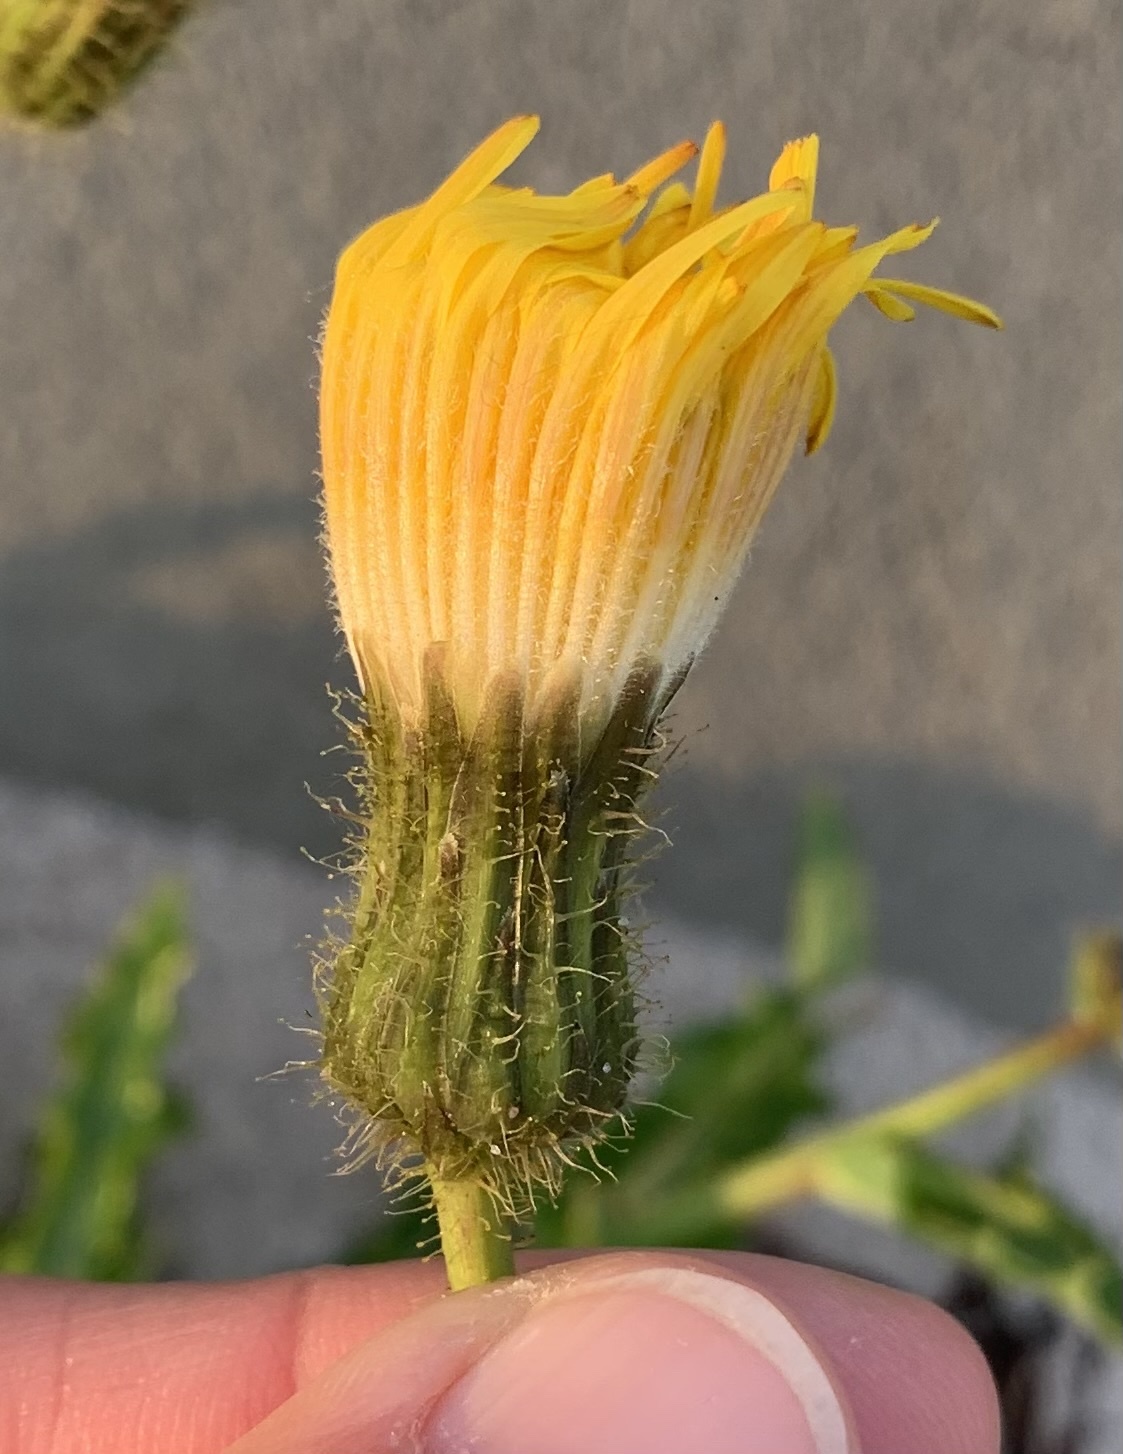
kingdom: Plantae
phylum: Tracheophyta
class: Magnoliopsida
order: Asterales
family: Asteraceae
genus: Sonchus
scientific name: Sonchus arvensis
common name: Perennial sow-thistle
